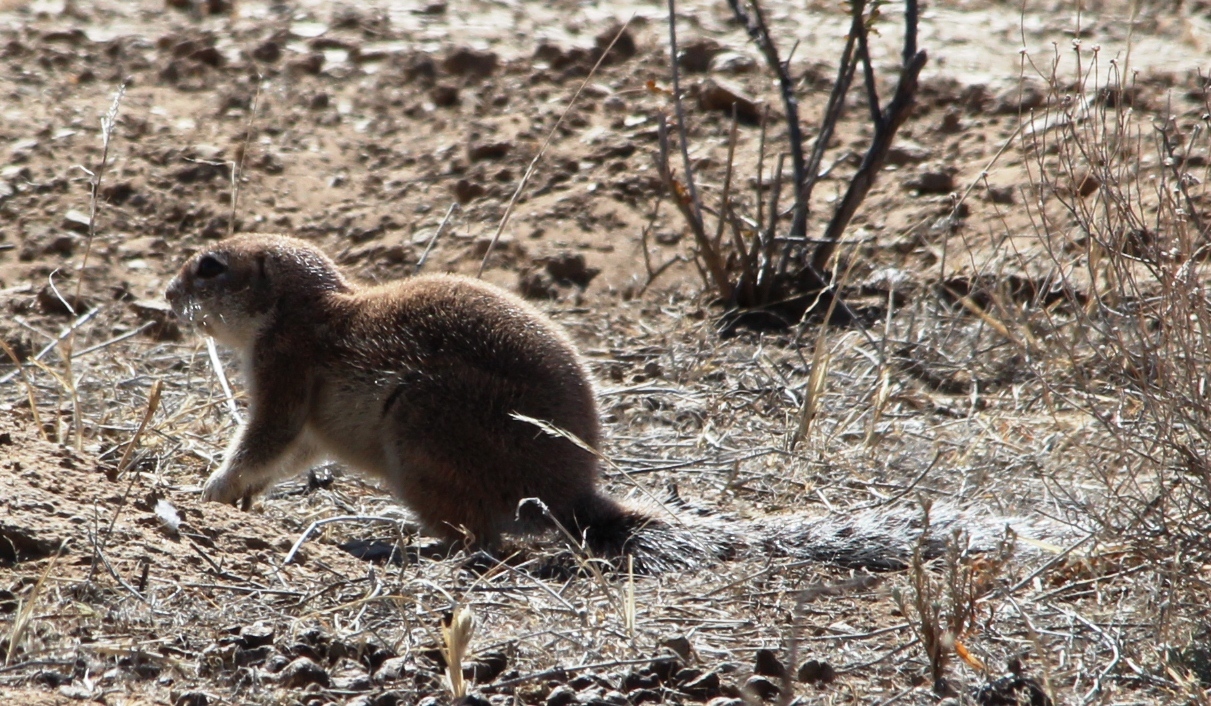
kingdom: Animalia
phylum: Chordata
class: Mammalia
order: Rodentia
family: Sciuridae
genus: Xerus
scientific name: Xerus inauris
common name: South african ground squirrel
